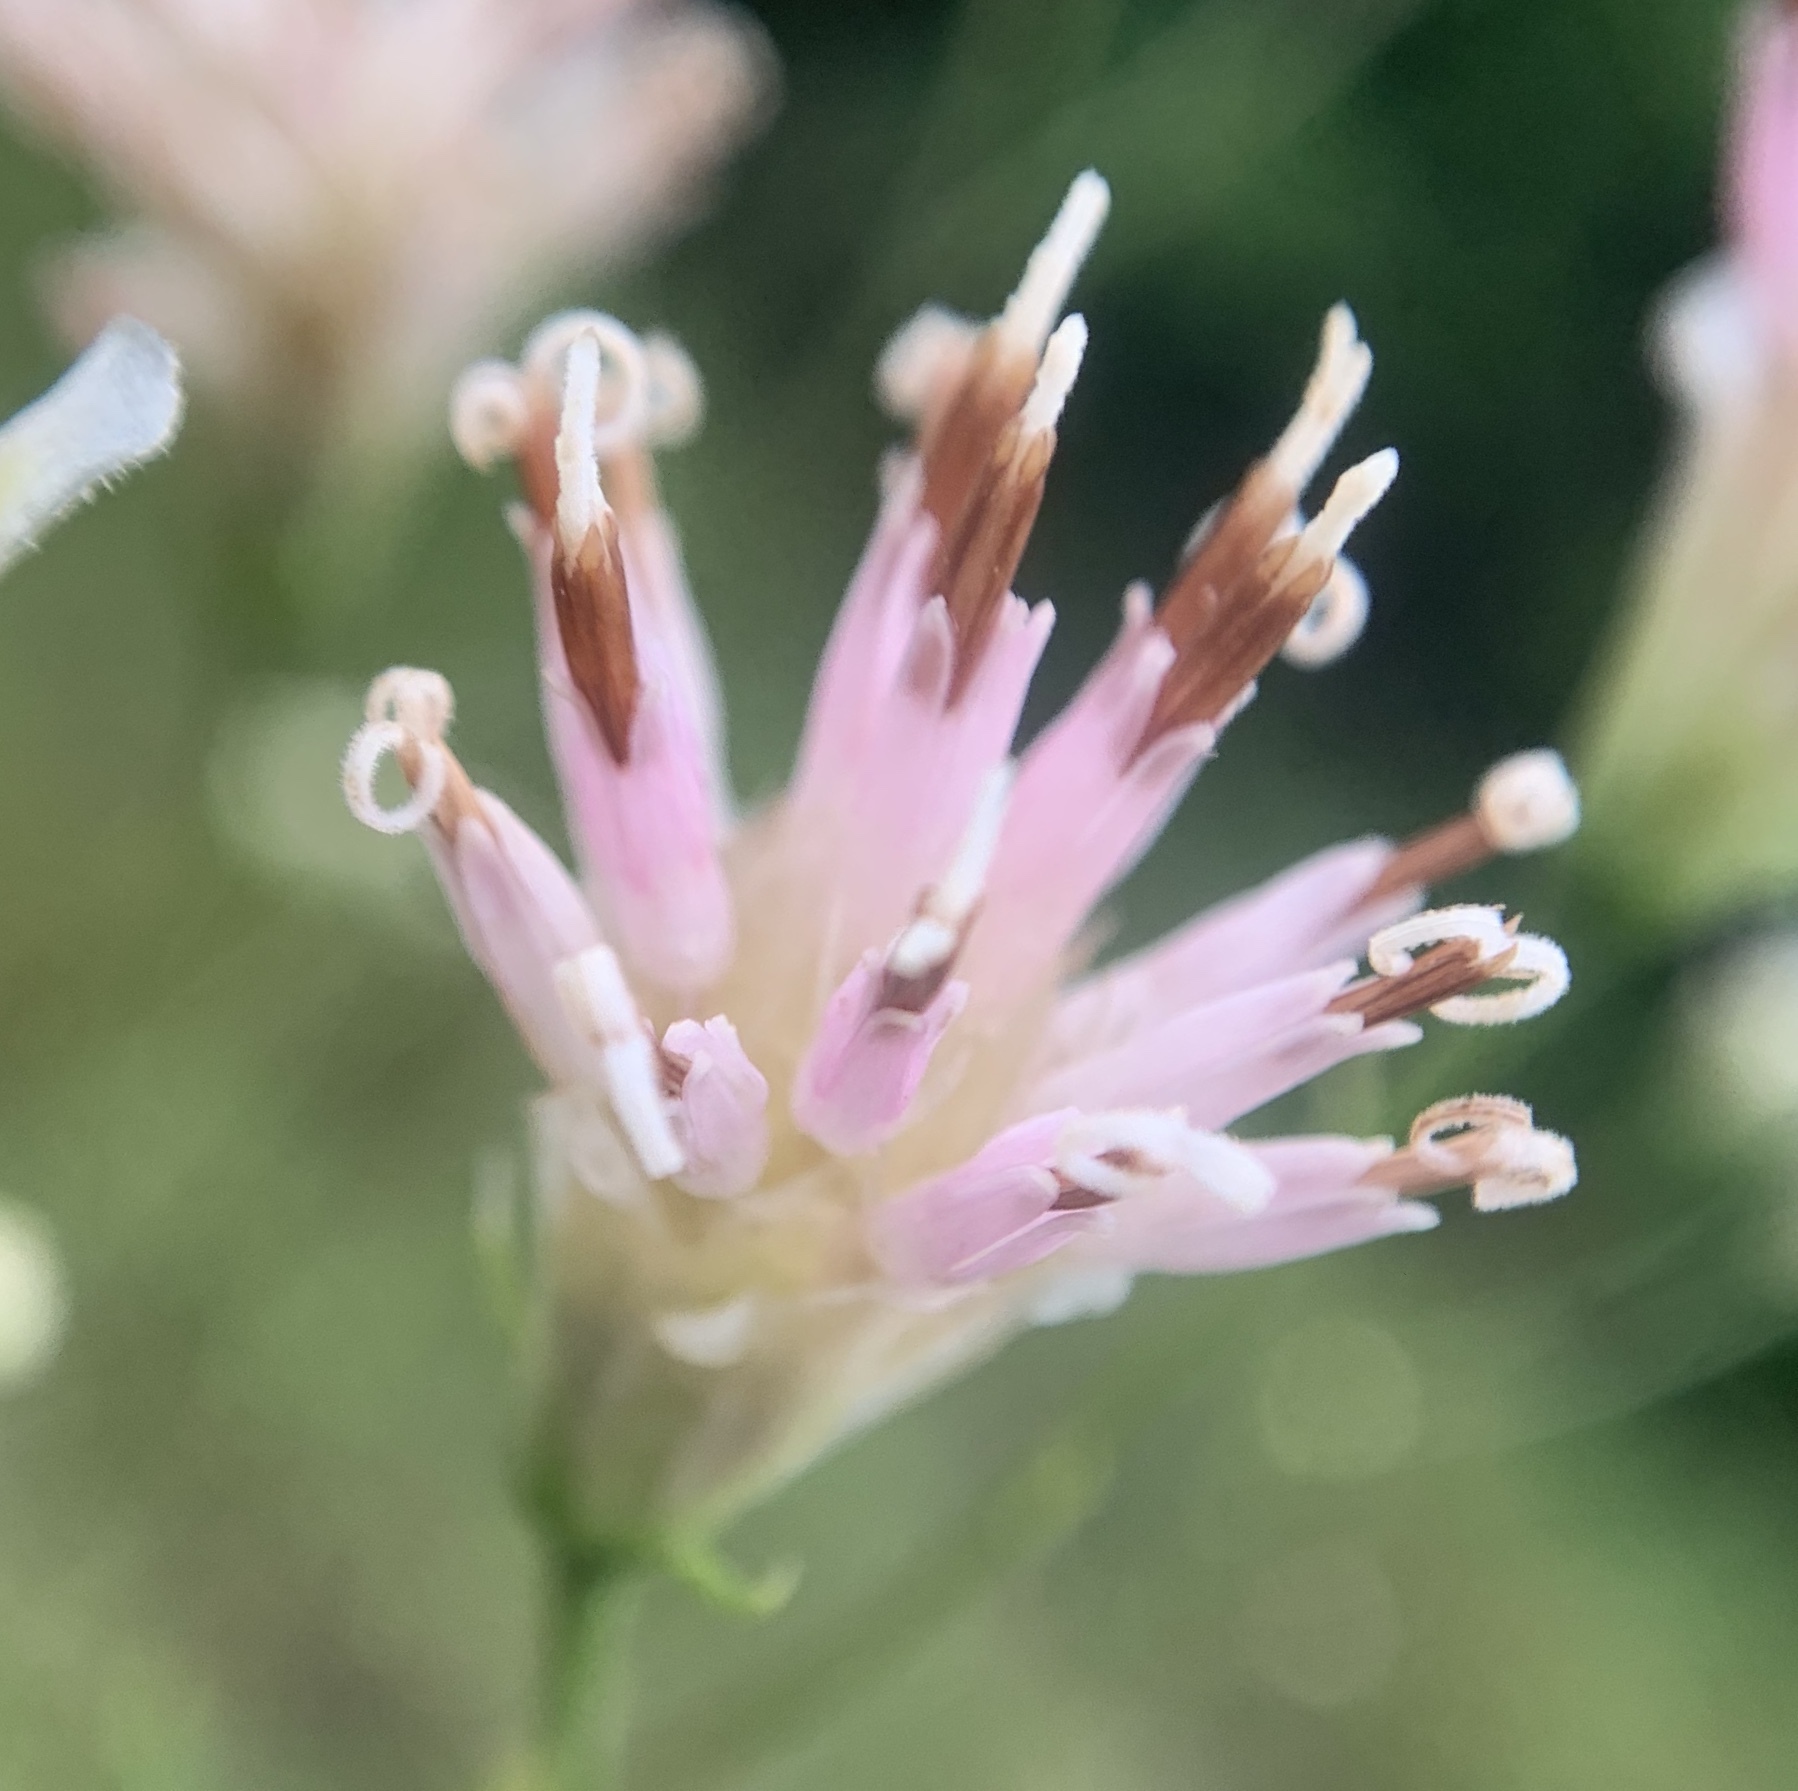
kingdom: Plantae
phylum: Tracheophyta
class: Magnoliopsida
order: Asterales
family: Asteraceae
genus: Palafoxia
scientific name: Palafoxia integrifolia
